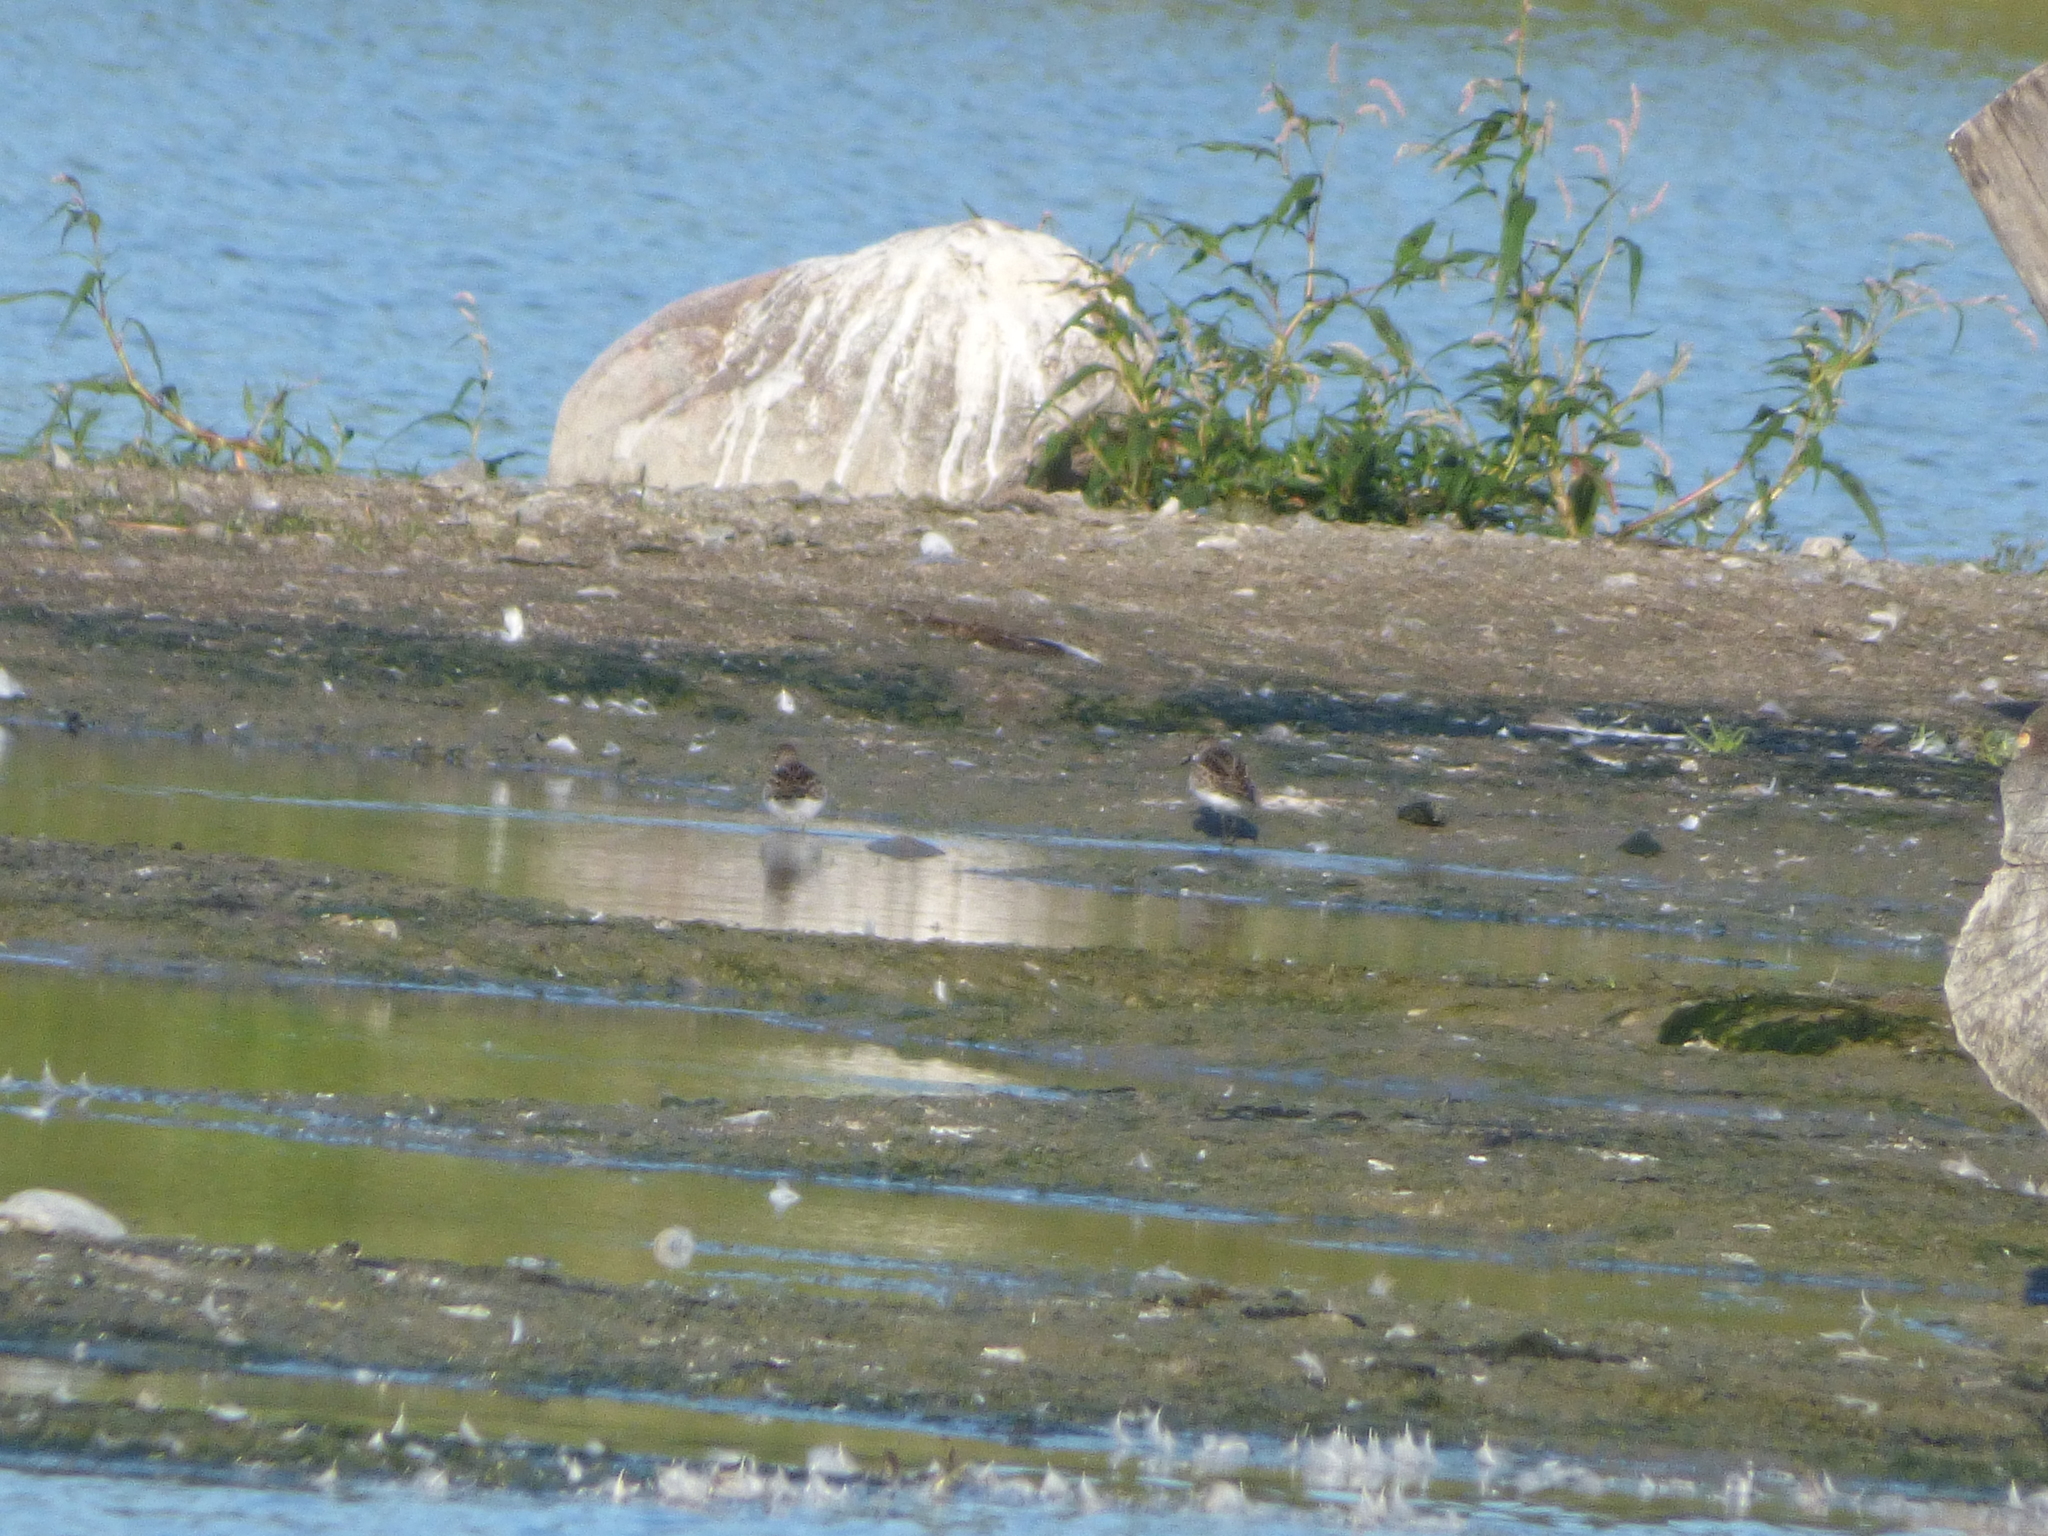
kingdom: Animalia
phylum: Chordata
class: Aves
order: Charadriiformes
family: Scolopacidae
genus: Calidris
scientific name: Calidris pusilla
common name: Semipalmated sandpiper
